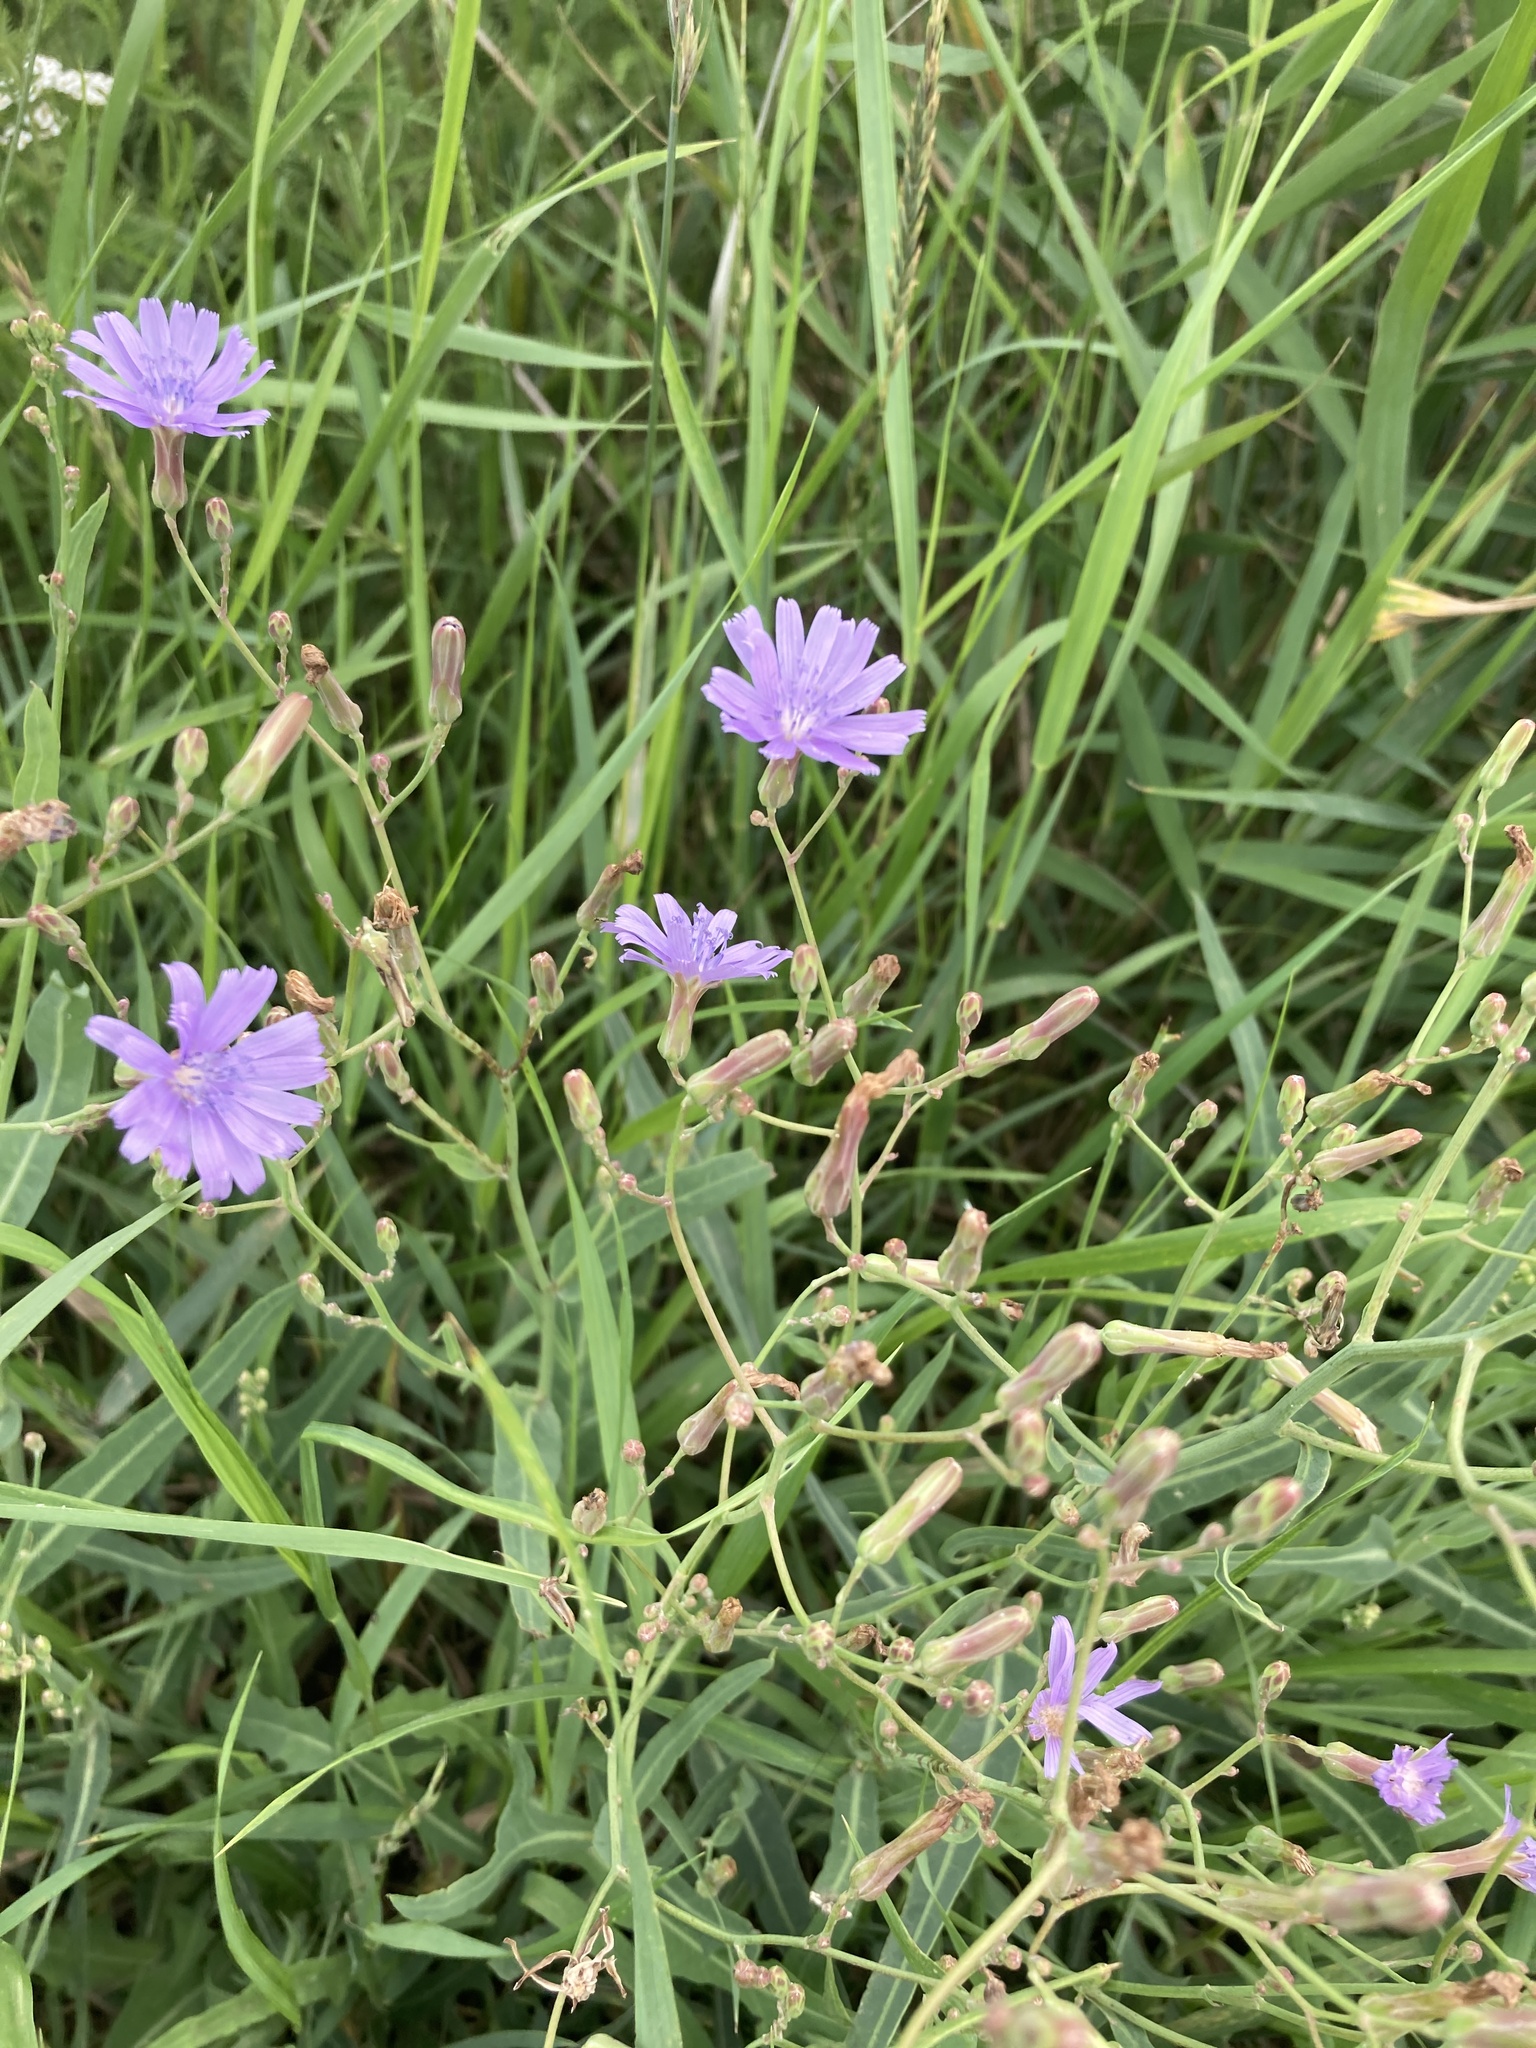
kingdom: Plantae
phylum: Tracheophyta
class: Magnoliopsida
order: Asterales
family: Asteraceae
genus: Lactuca
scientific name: Lactuca tatarica
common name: Blue lettuce
